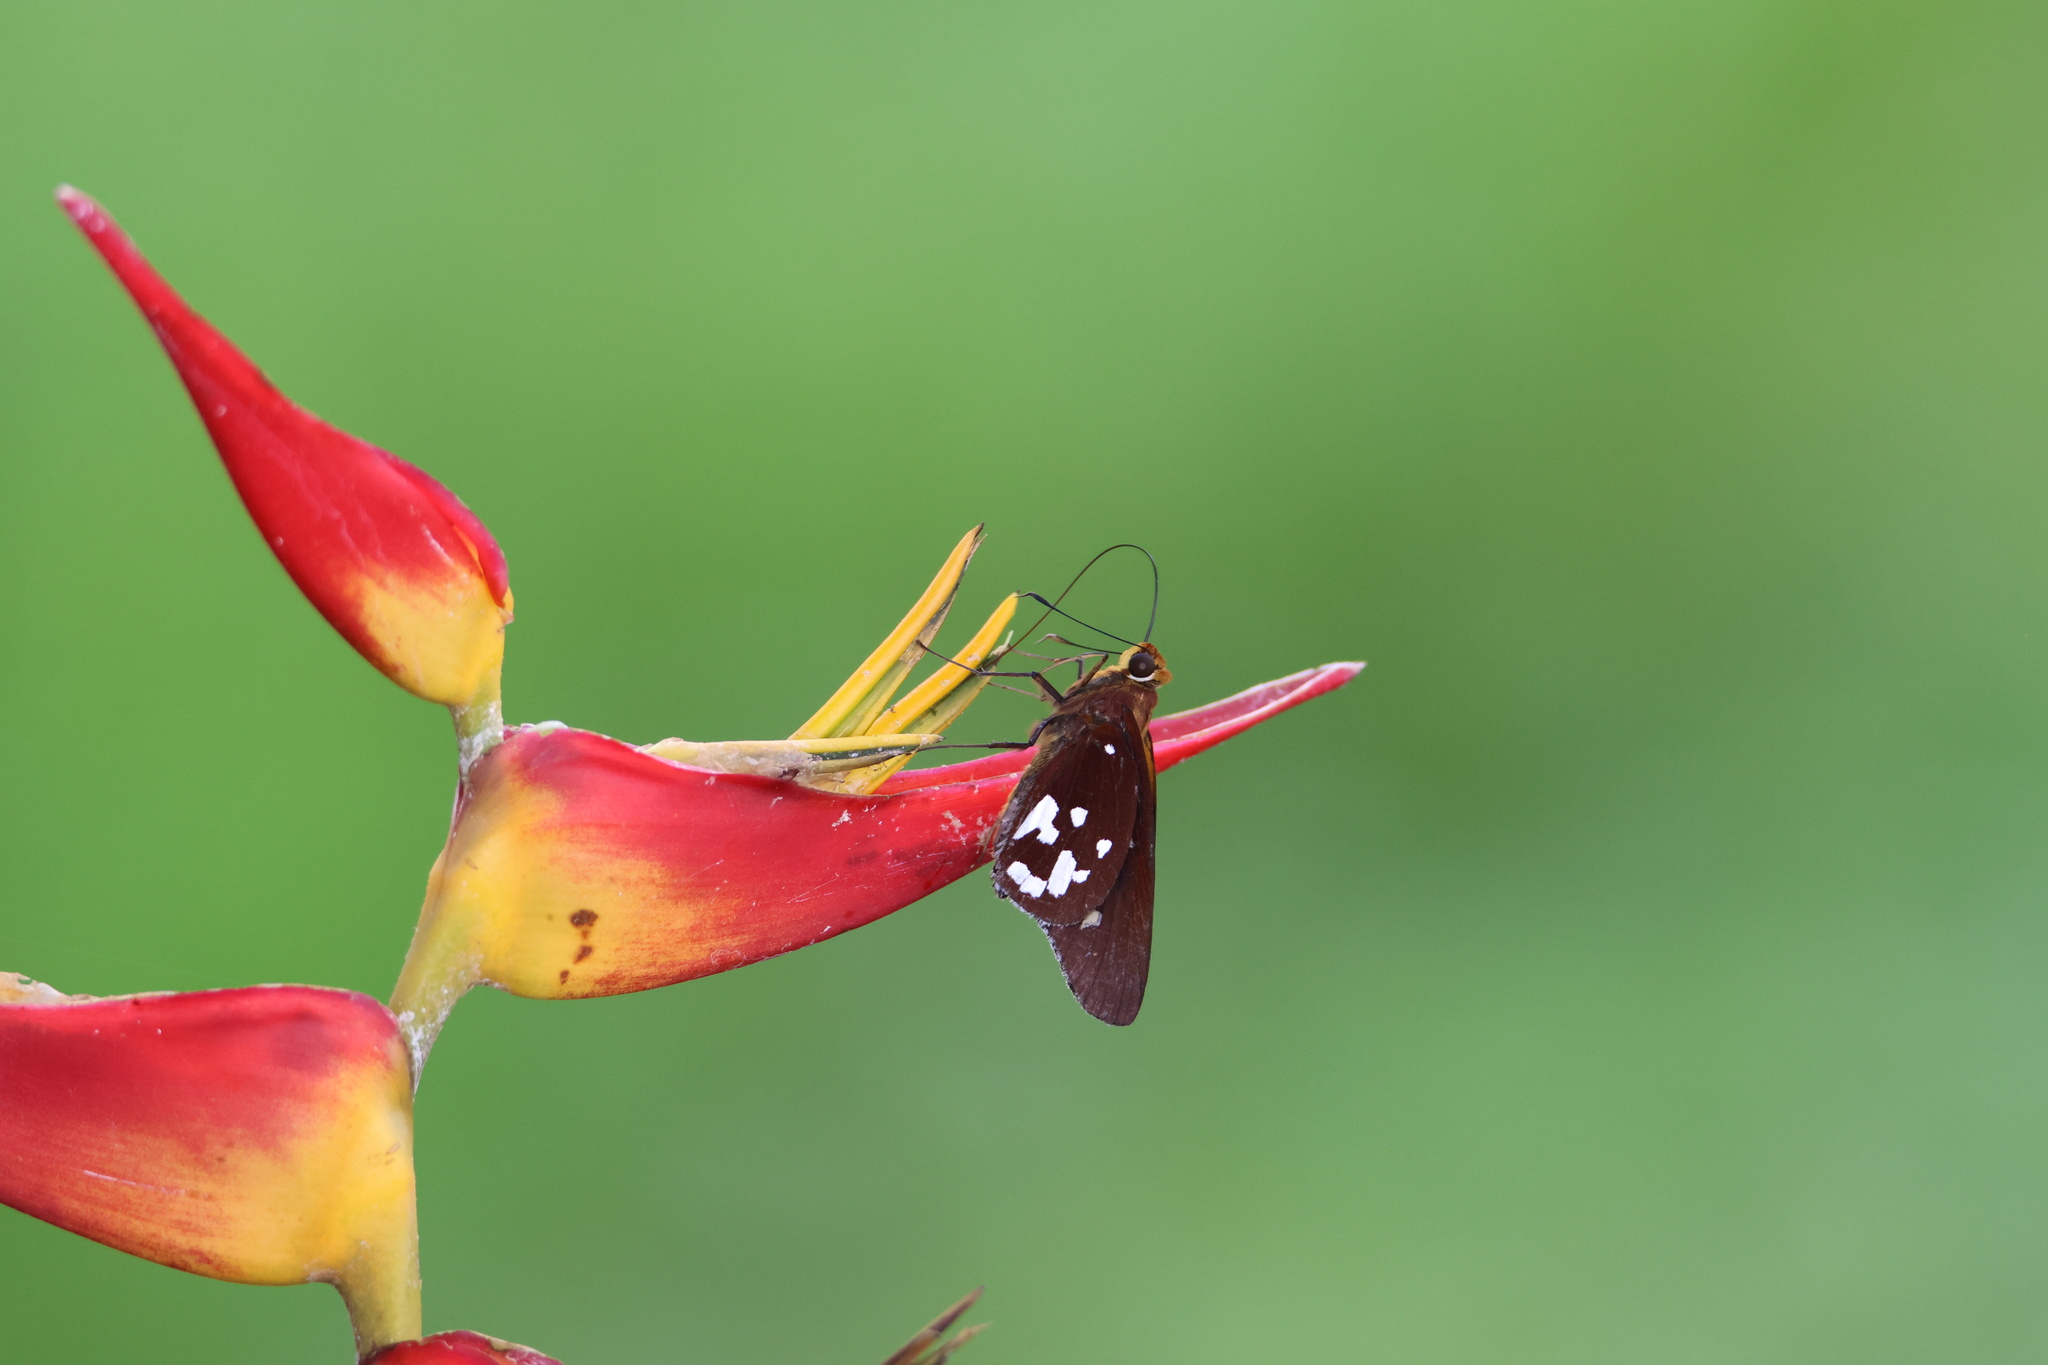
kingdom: Animalia
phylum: Arthropoda
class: Insecta
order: Lepidoptera
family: Hesperiidae
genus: Aides
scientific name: Aides dysoni
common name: Dyson's silverpatch
